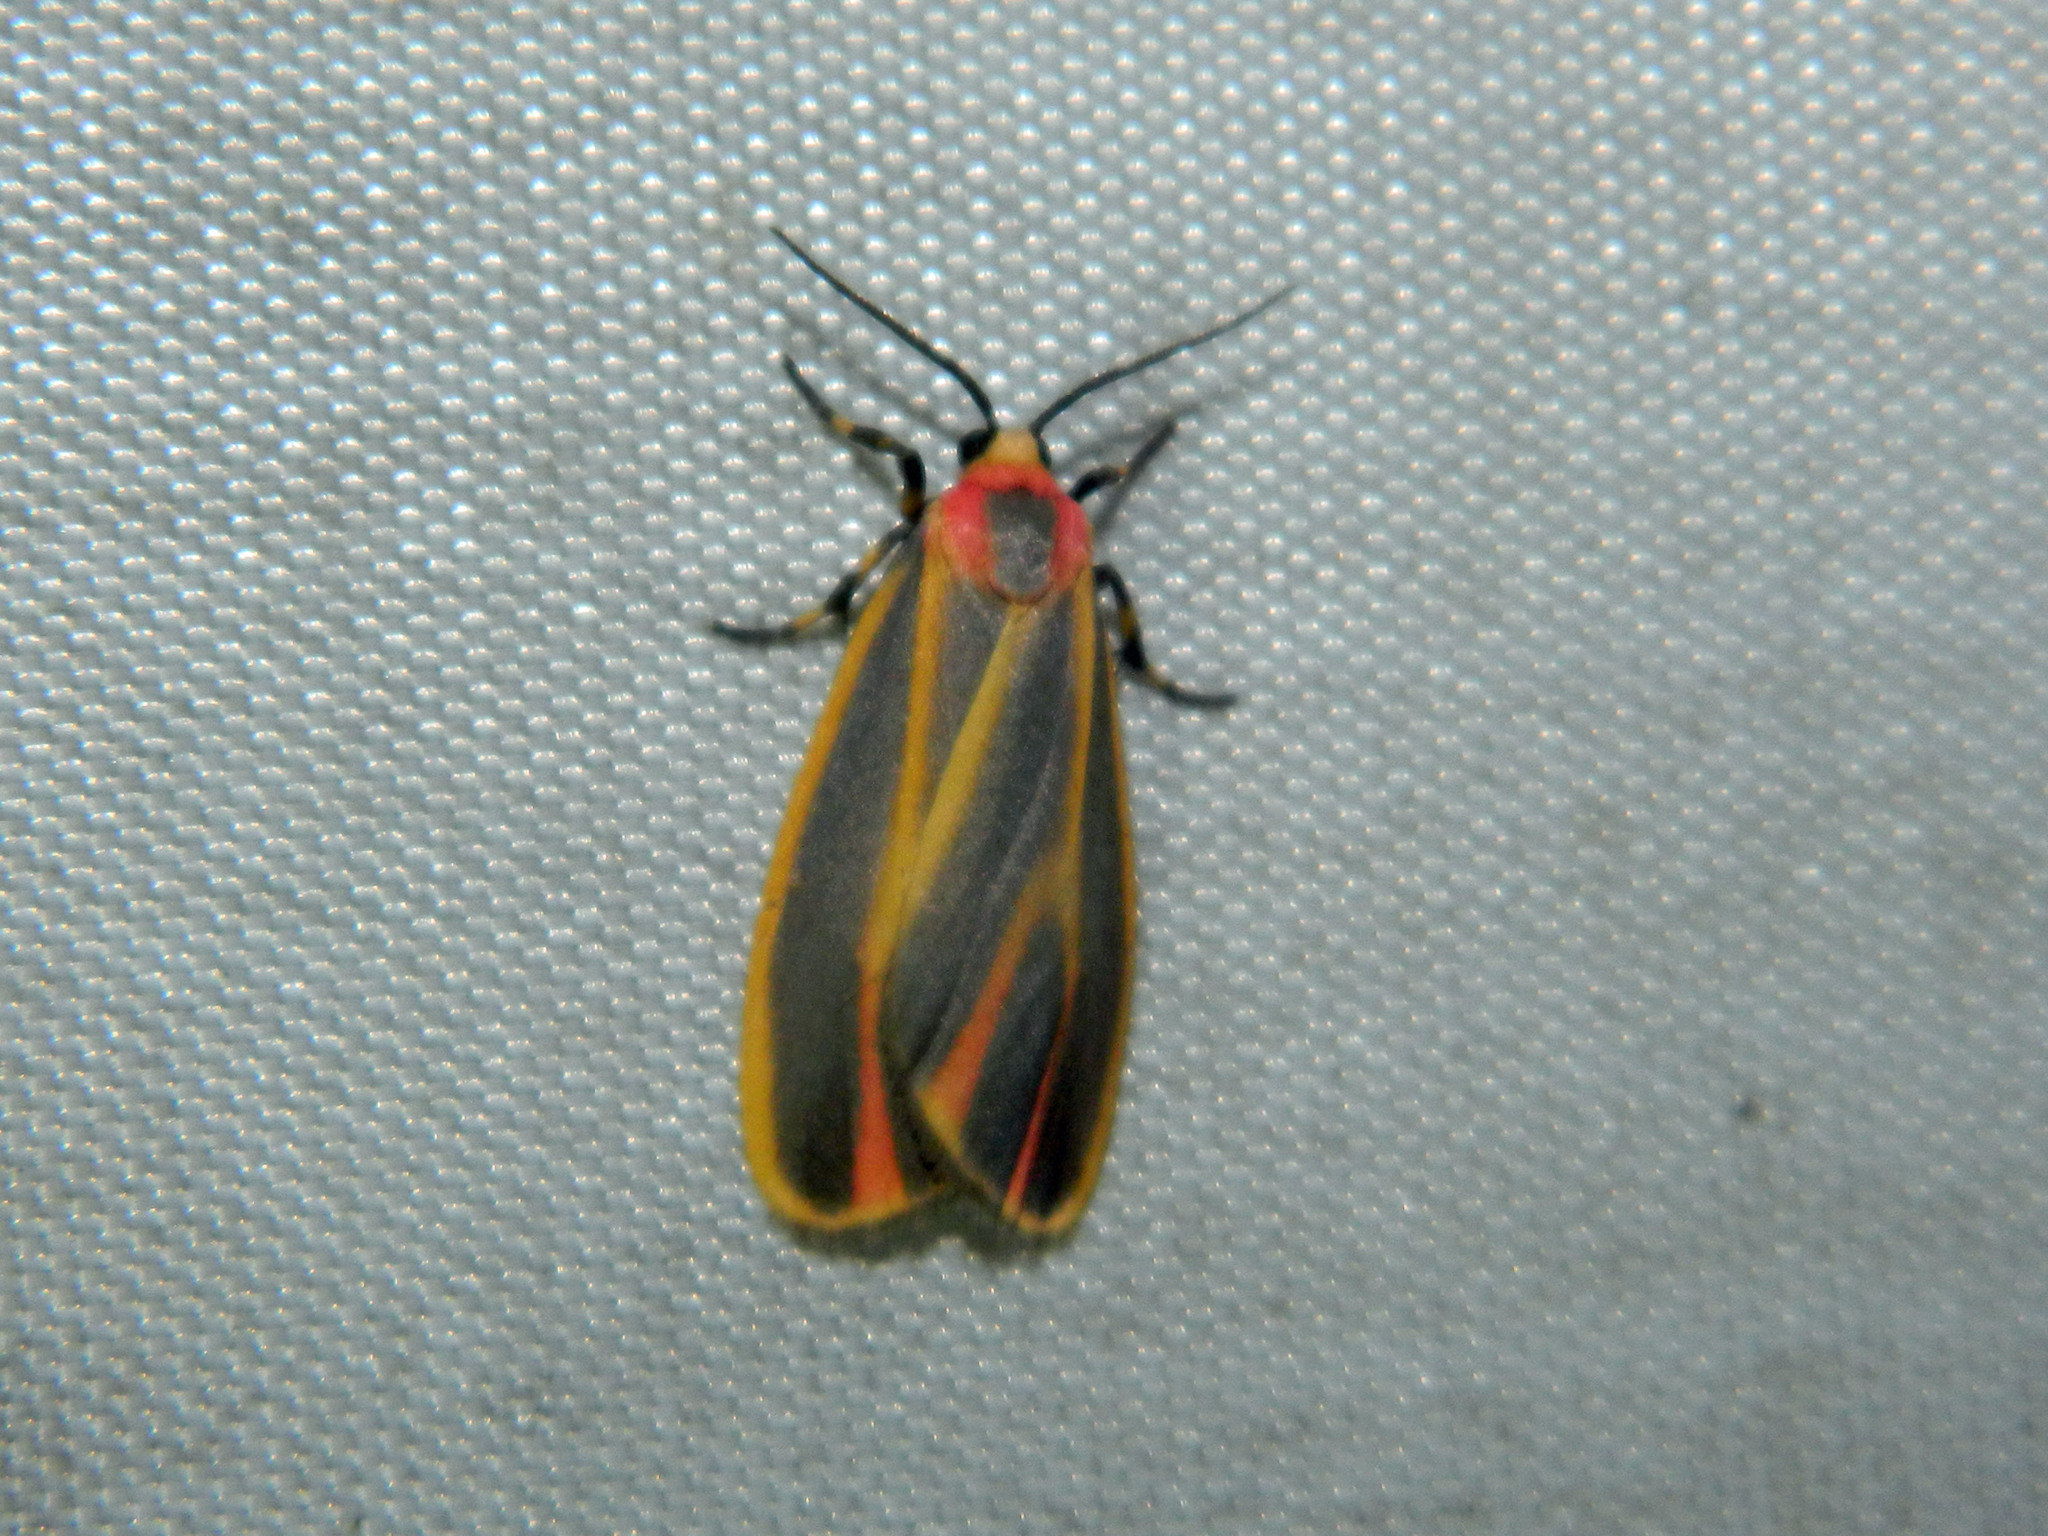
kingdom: Animalia
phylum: Arthropoda
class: Insecta
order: Lepidoptera
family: Erebidae
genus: Hypoprepia
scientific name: Hypoprepia fucosa
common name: Painted lichen moth
